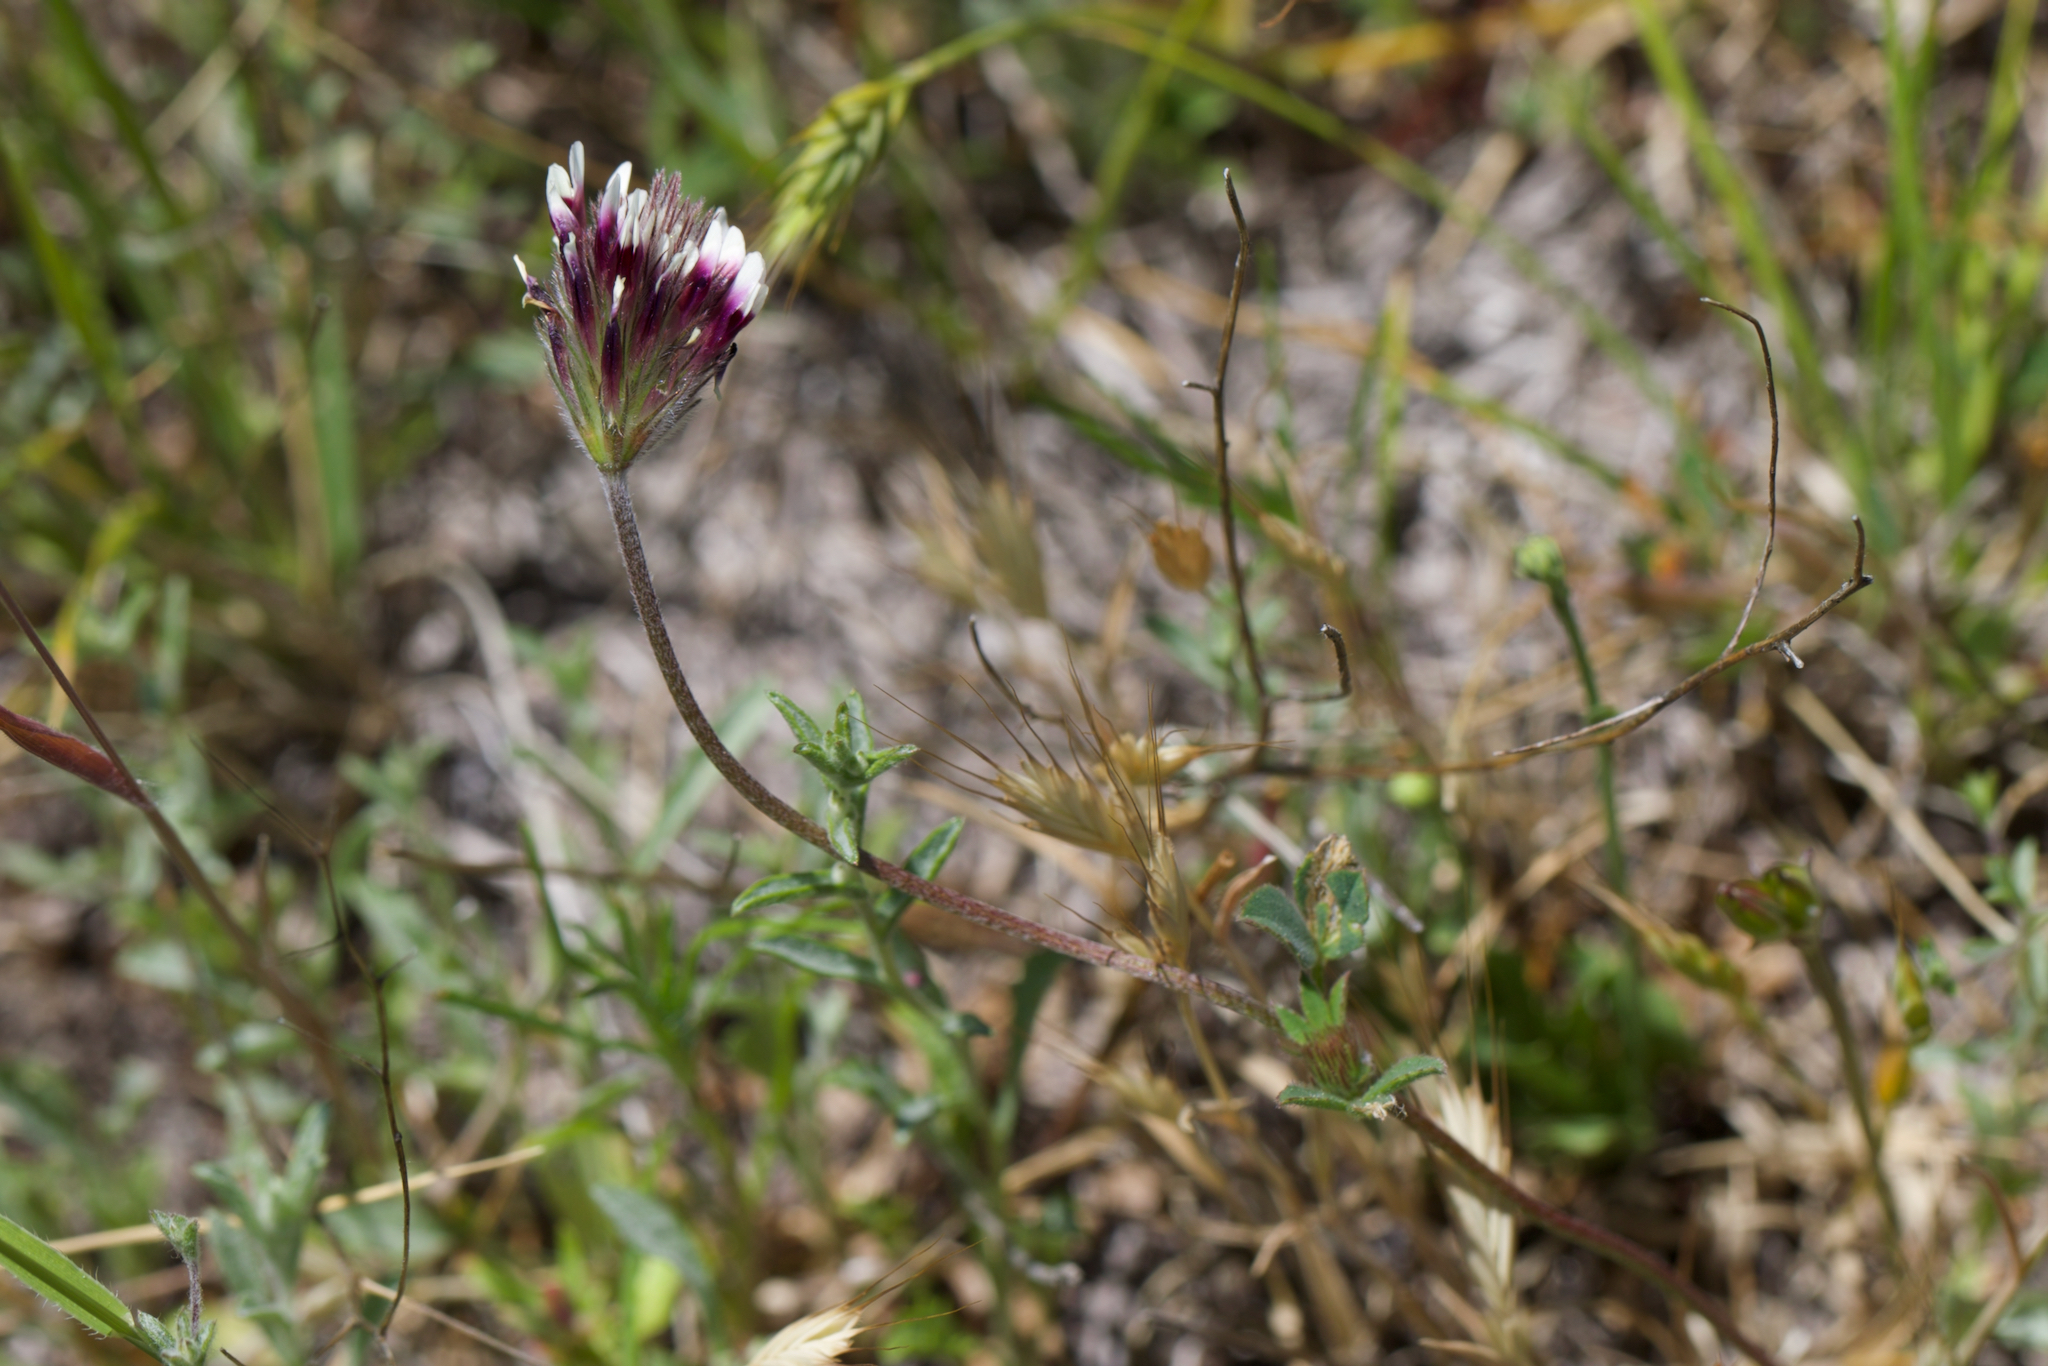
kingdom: Plantae
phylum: Tracheophyta
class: Magnoliopsida
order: Fabales
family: Fabaceae
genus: Trifolium
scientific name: Trifolium dichotomum
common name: Branched indian clover
